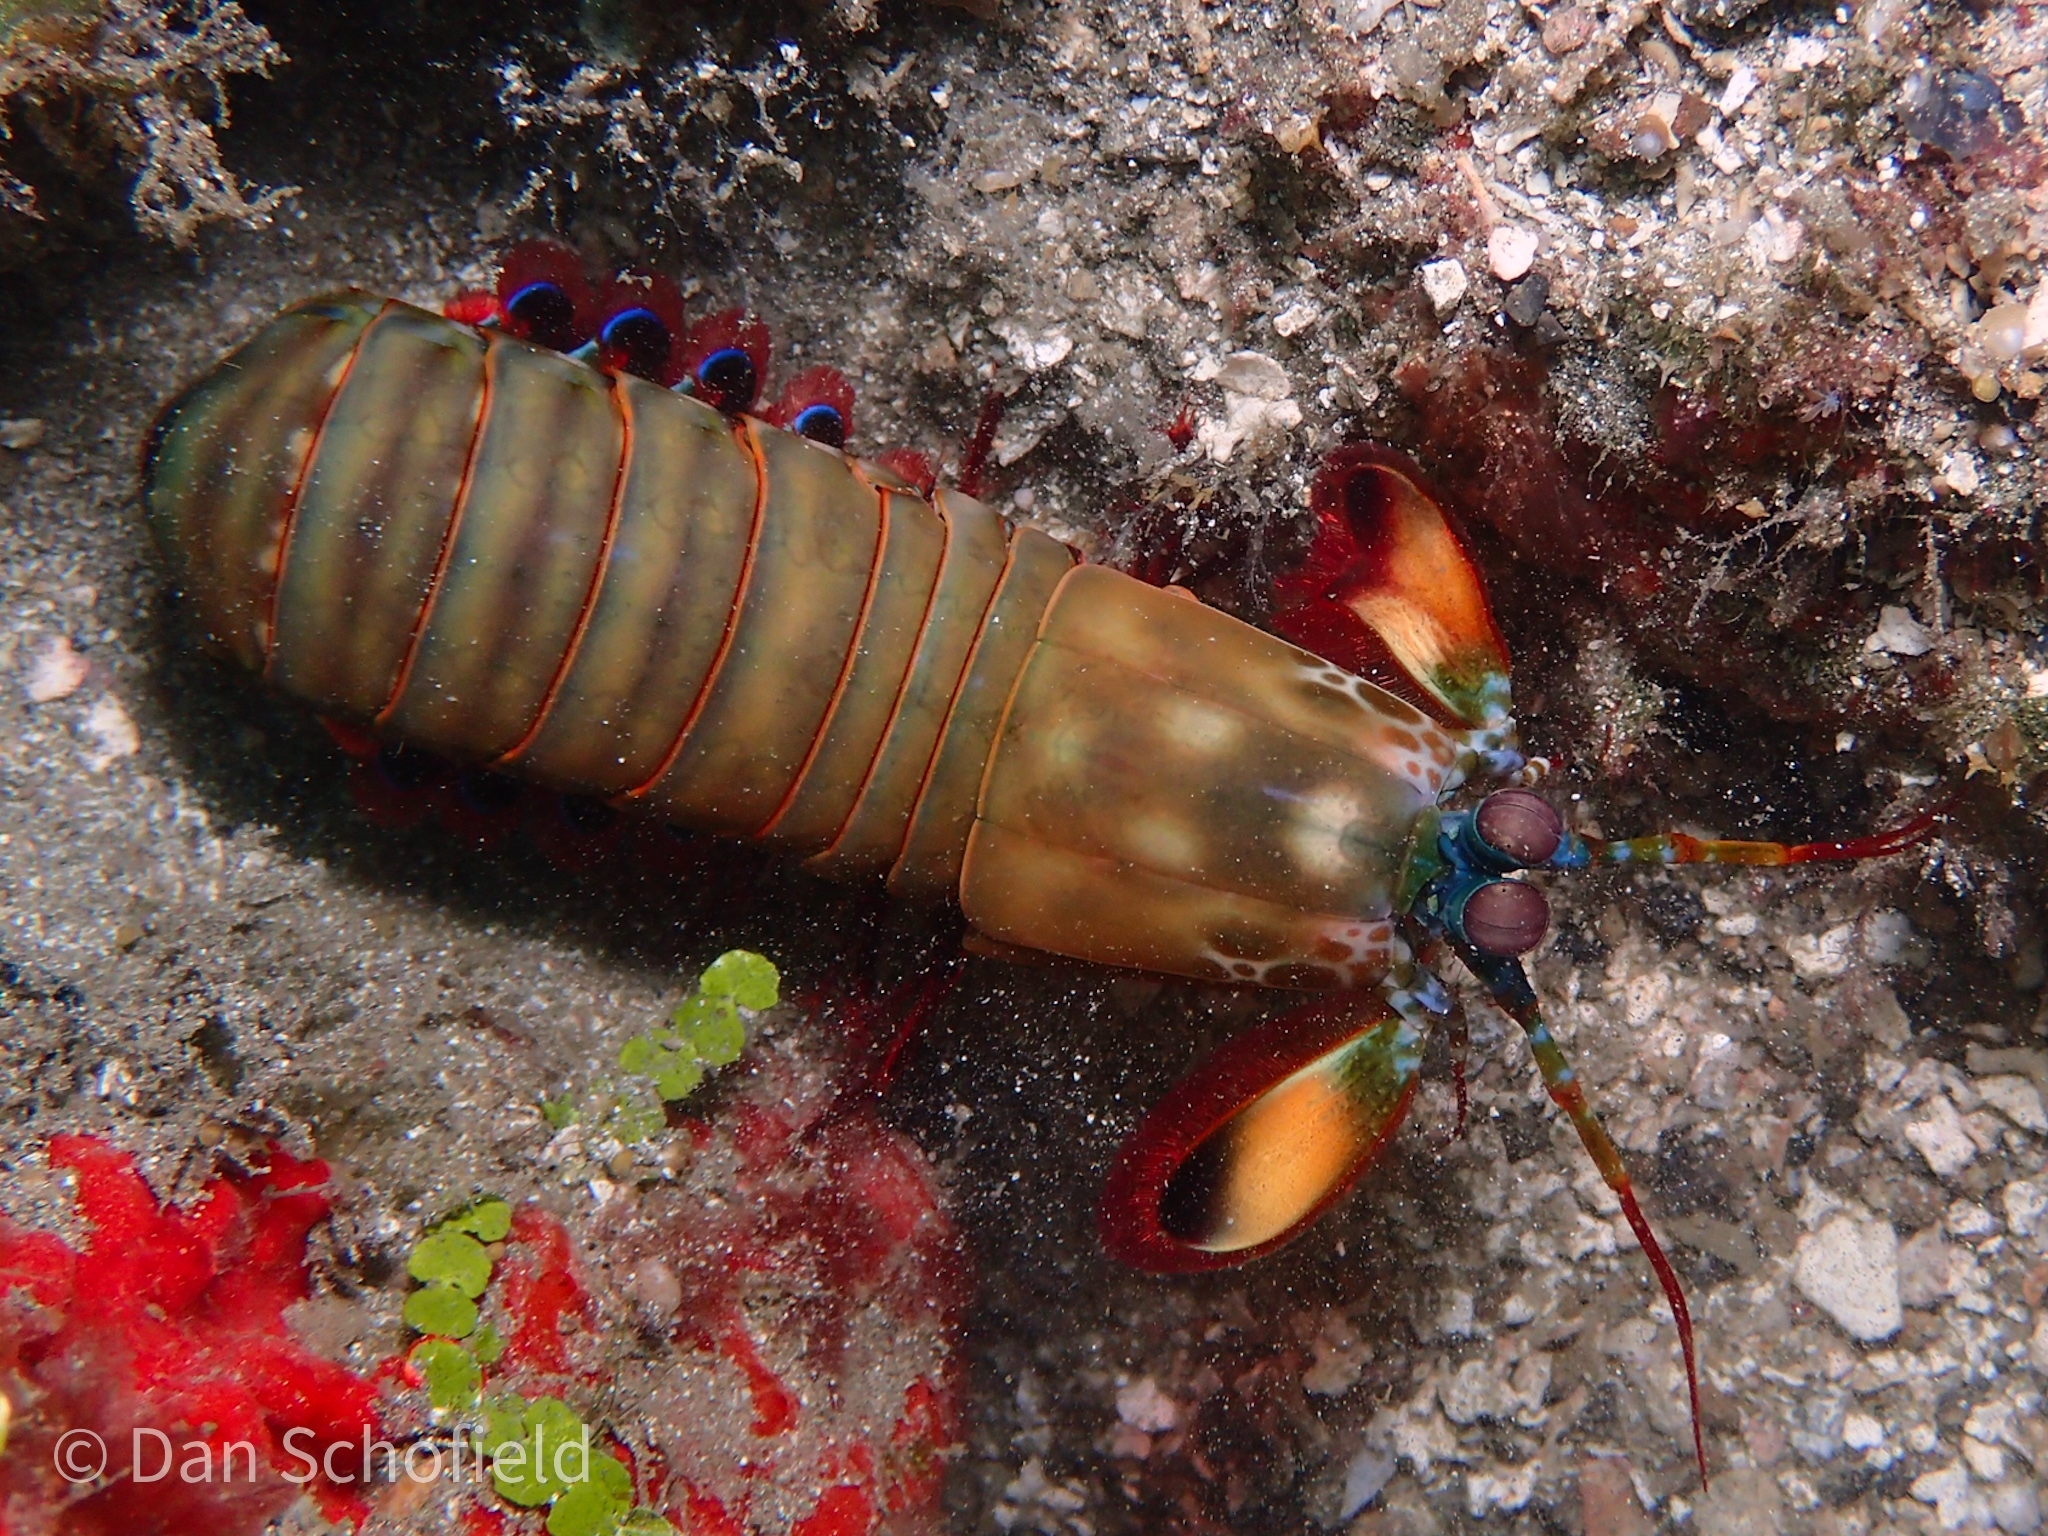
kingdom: Animalia
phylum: Arthropoda
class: Malacostraca
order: Stomatopoda
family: Odontodactylidae
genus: Odontodactylus
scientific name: Odontodactylus scyllarus
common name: Peacock mantis shrimp
